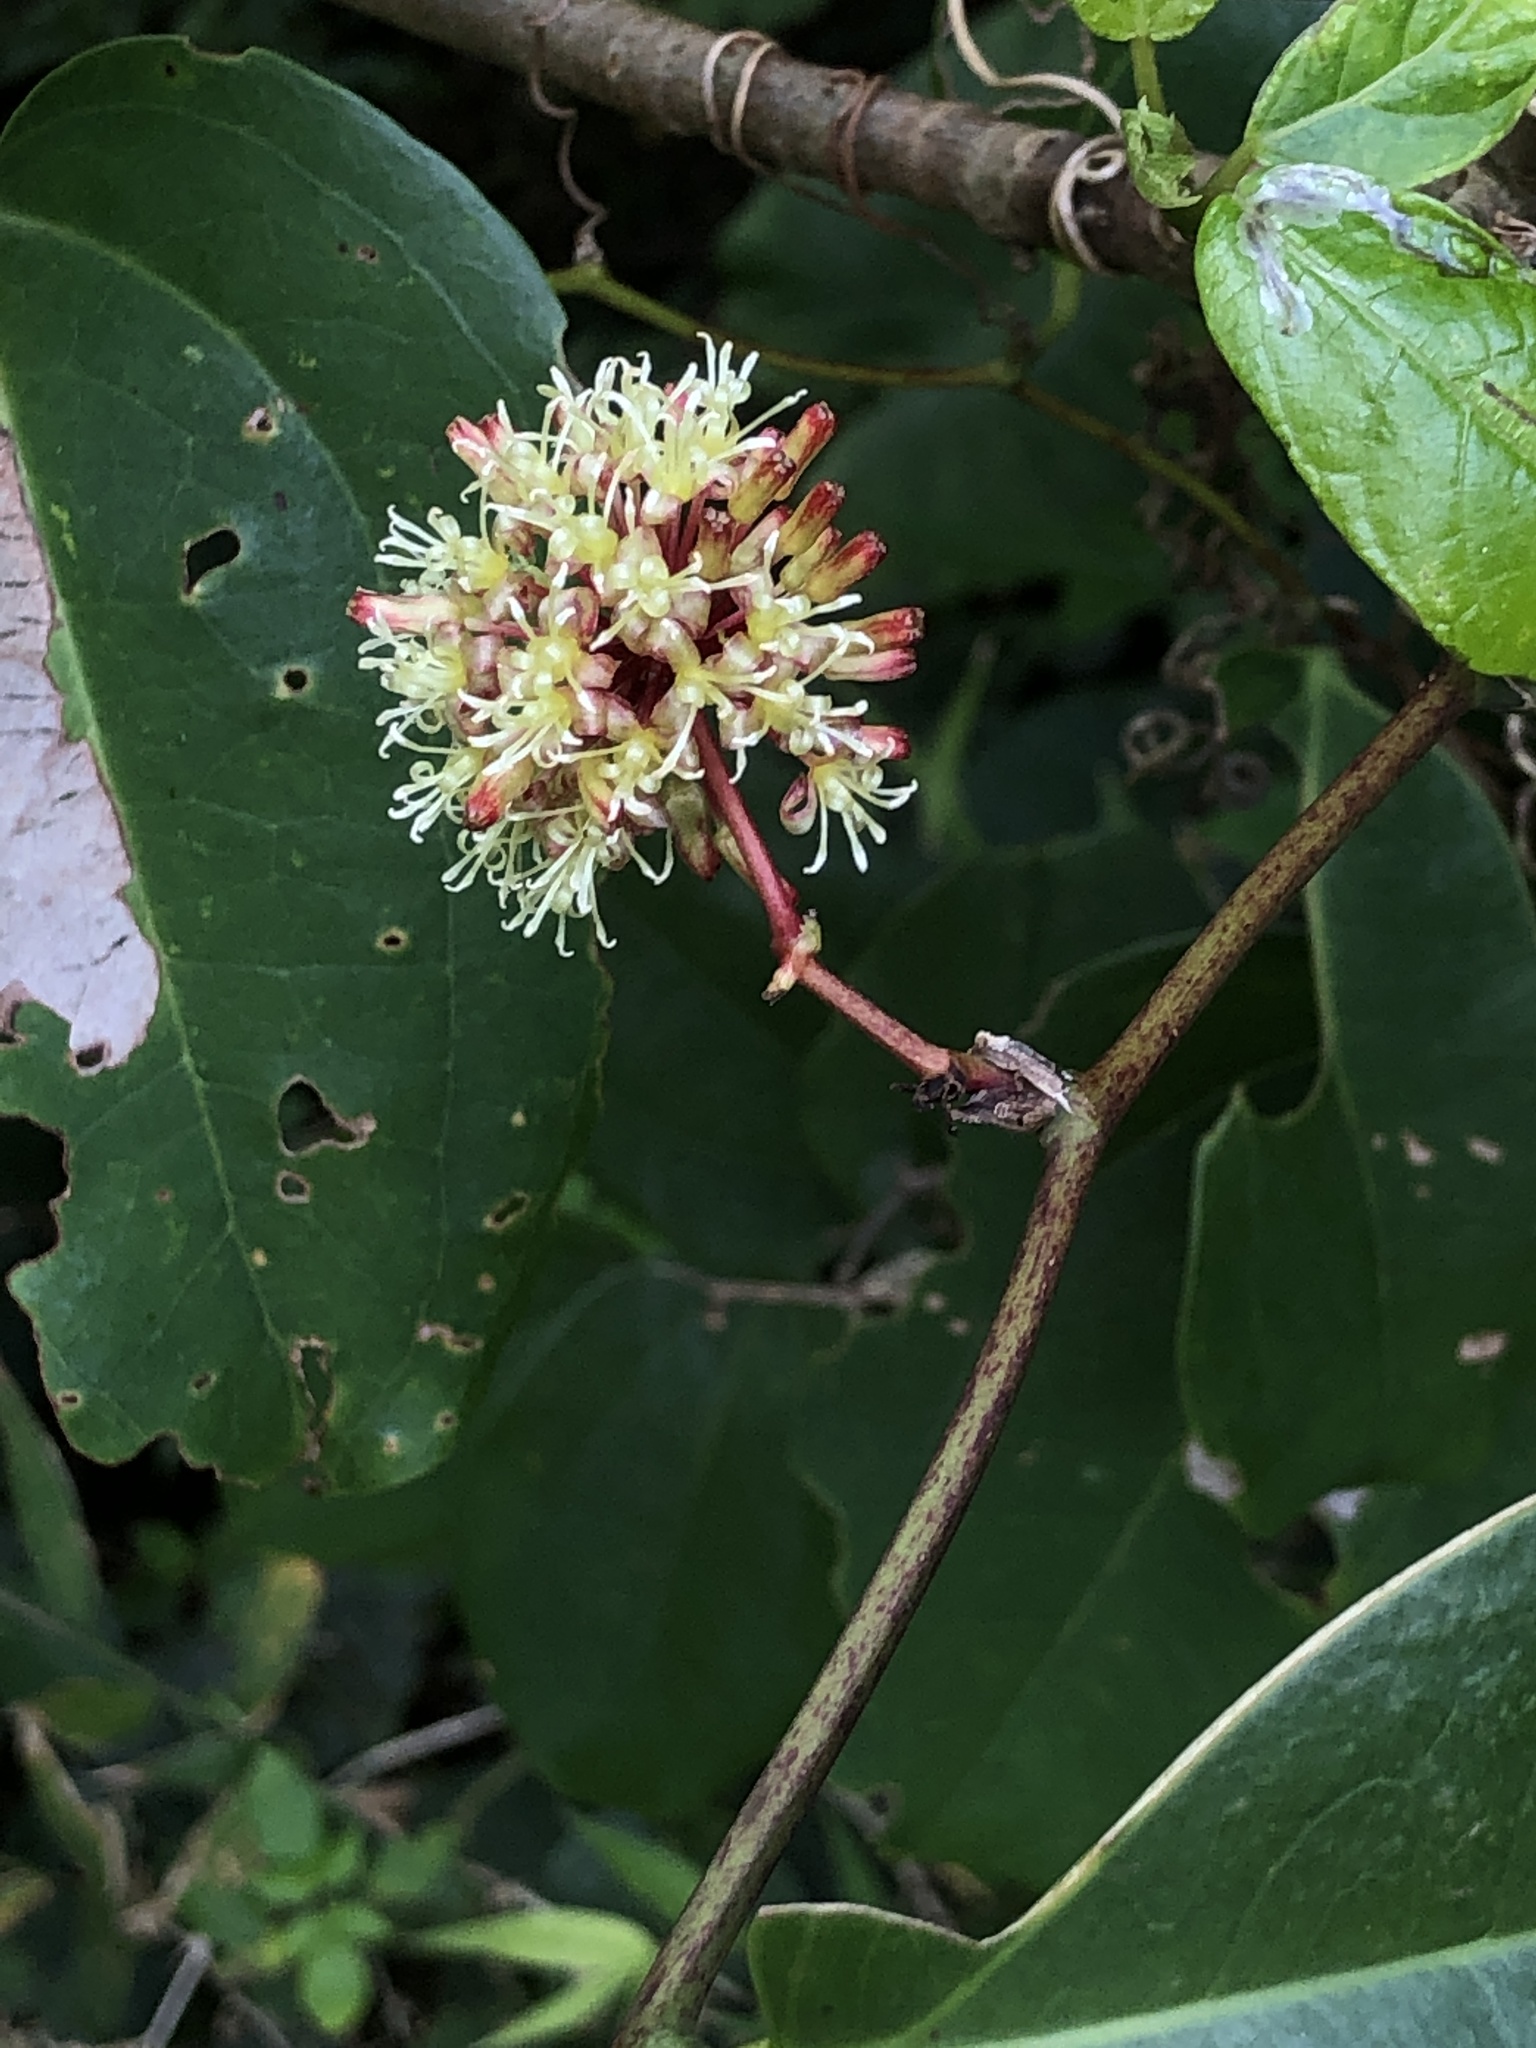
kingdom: Plantae
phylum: Tracheophyta
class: Liliopsida
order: Liliales
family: Smilacaceae
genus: Smilax
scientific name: Smilax bracteata
